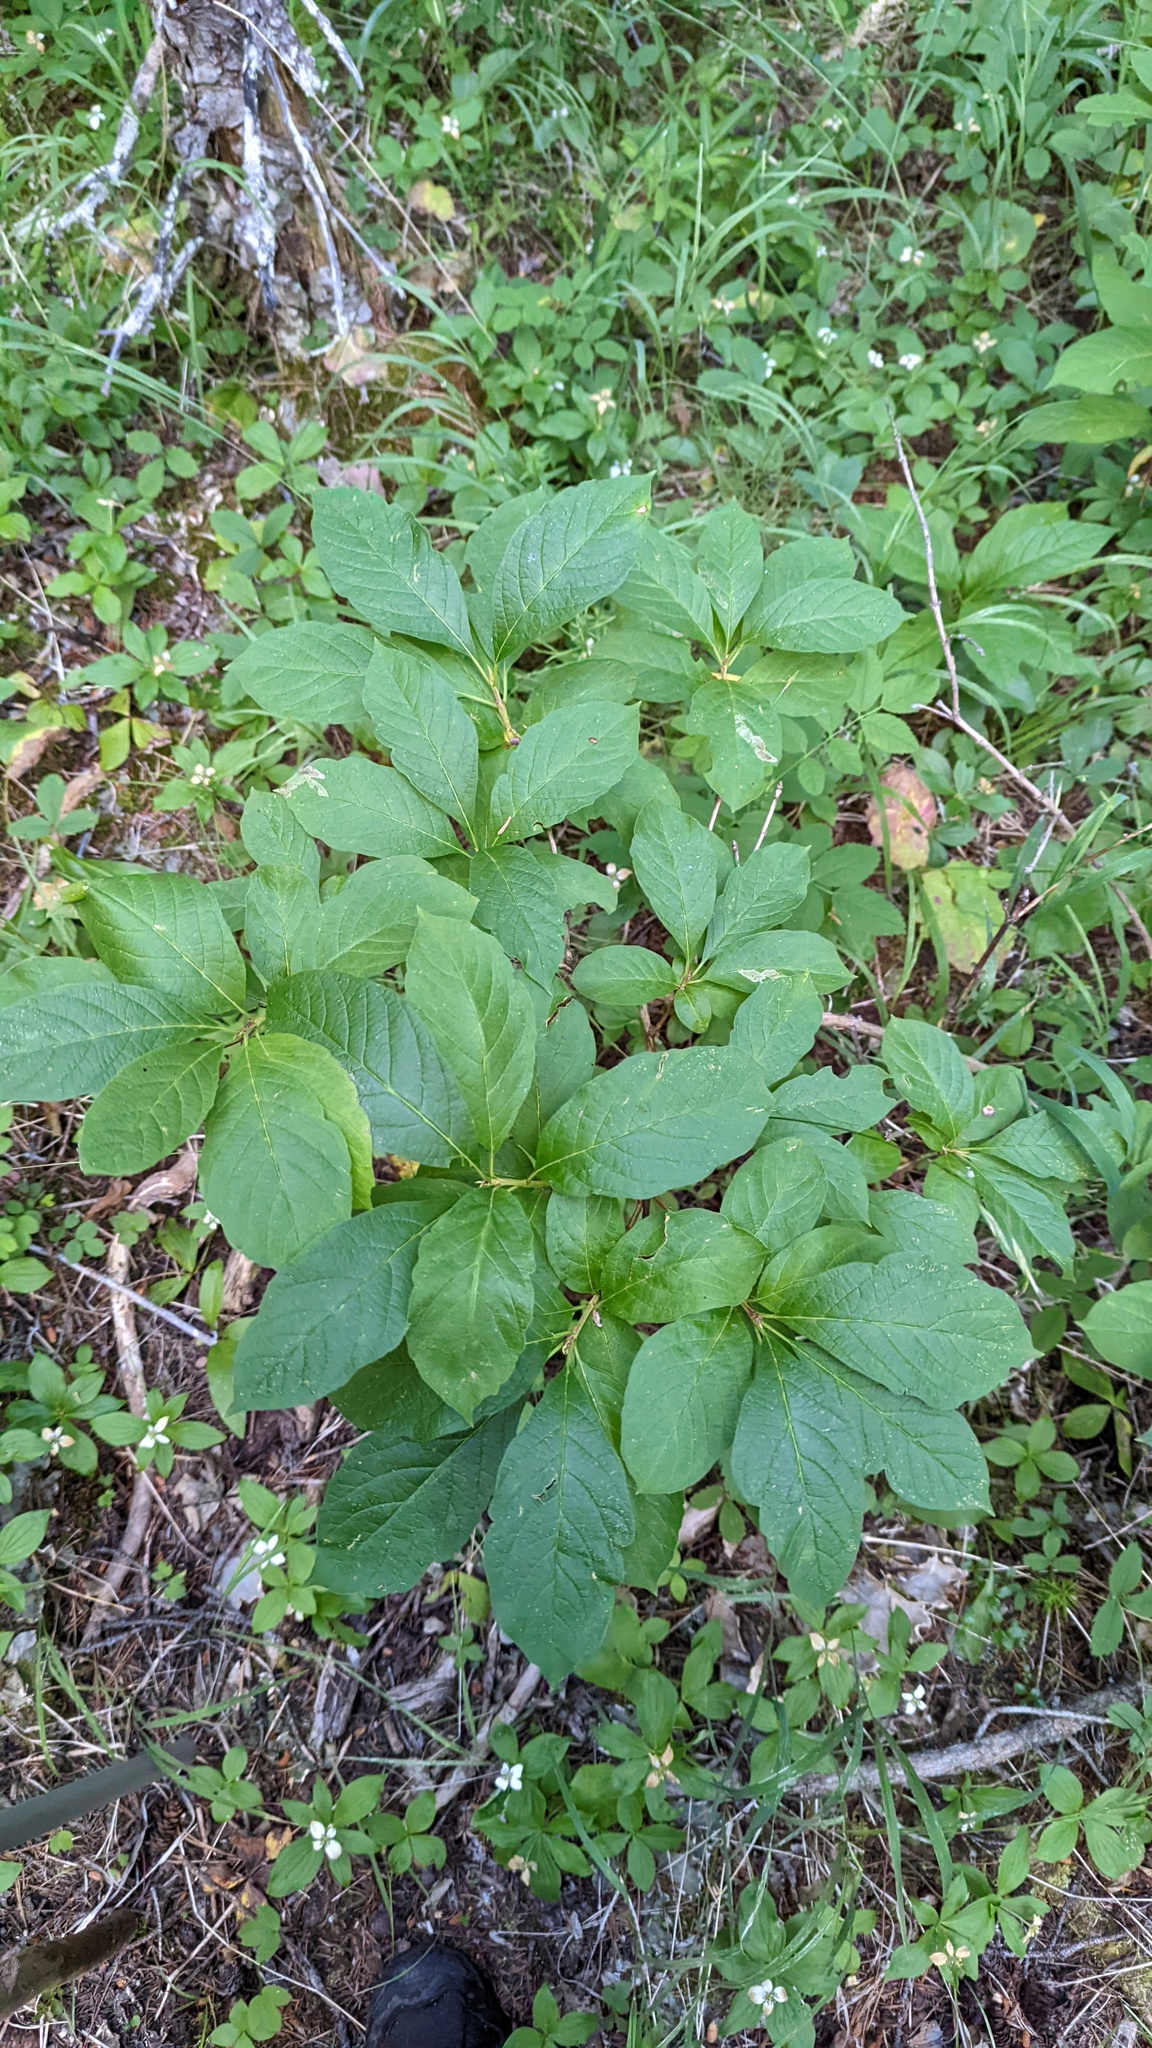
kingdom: Plantae
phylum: Tracheophyta
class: Magnoliopsida
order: Dipsacales
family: Caprifoliaceae
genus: Lonicera
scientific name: Lonicera involucrata
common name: Californian honeysuckle
